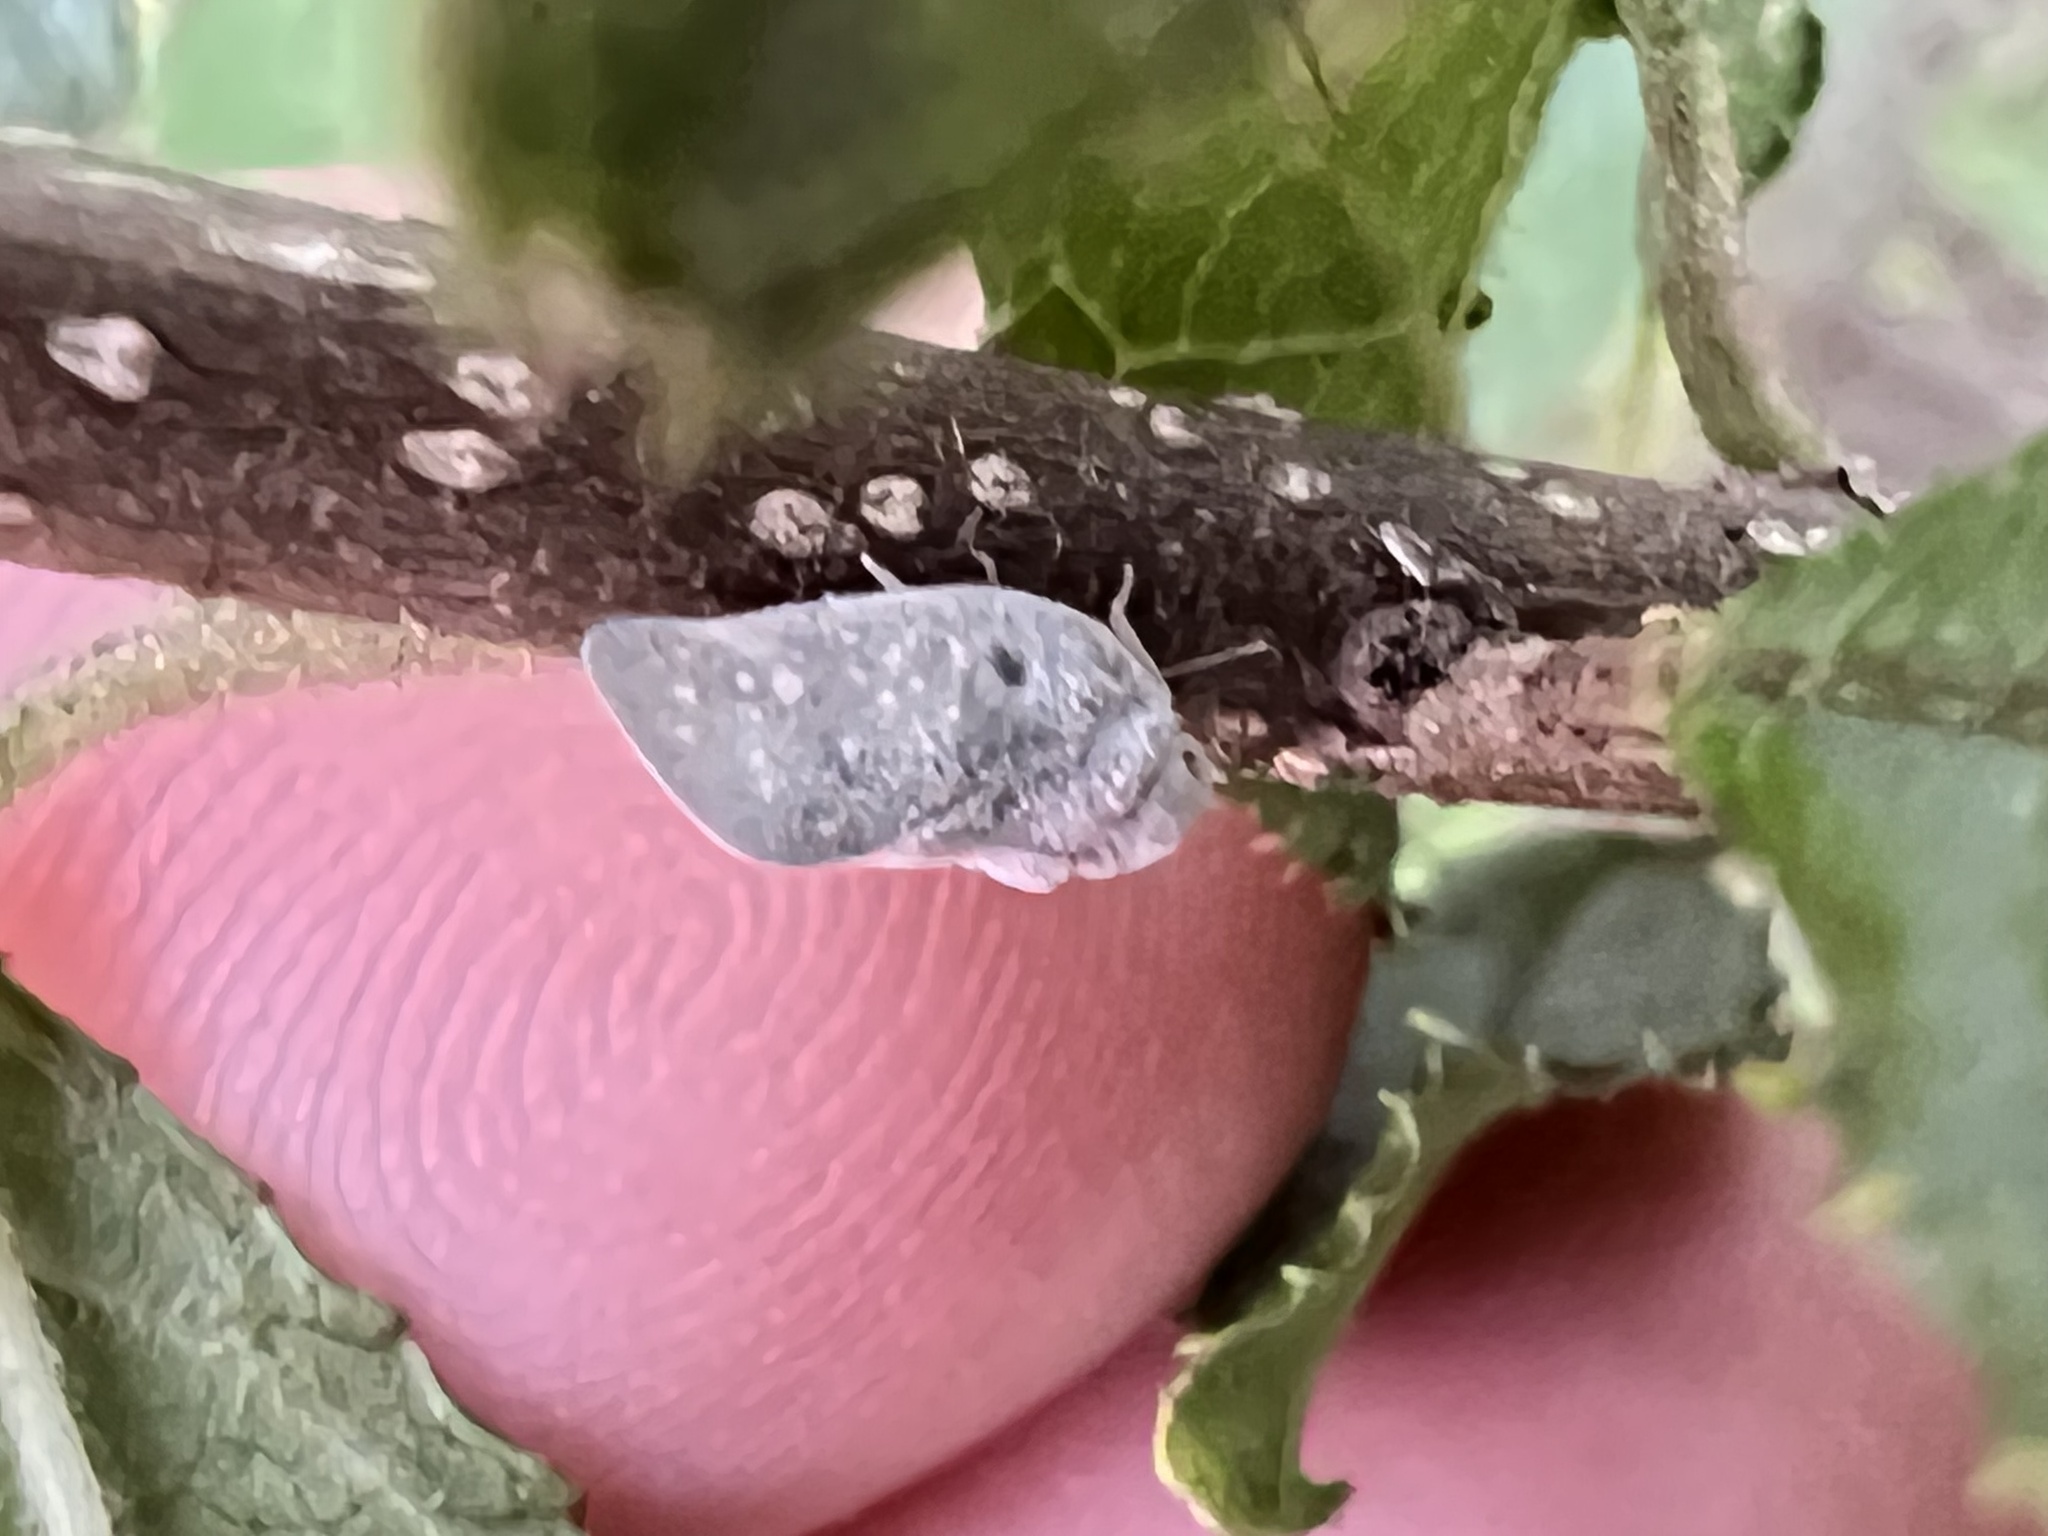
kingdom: Animalia
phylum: Arthropoda
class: Insecta
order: Hemiptera
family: Flatidae
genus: Metcalfa
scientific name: Metcalfa pruinosa
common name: Citrus flatid planthopper
